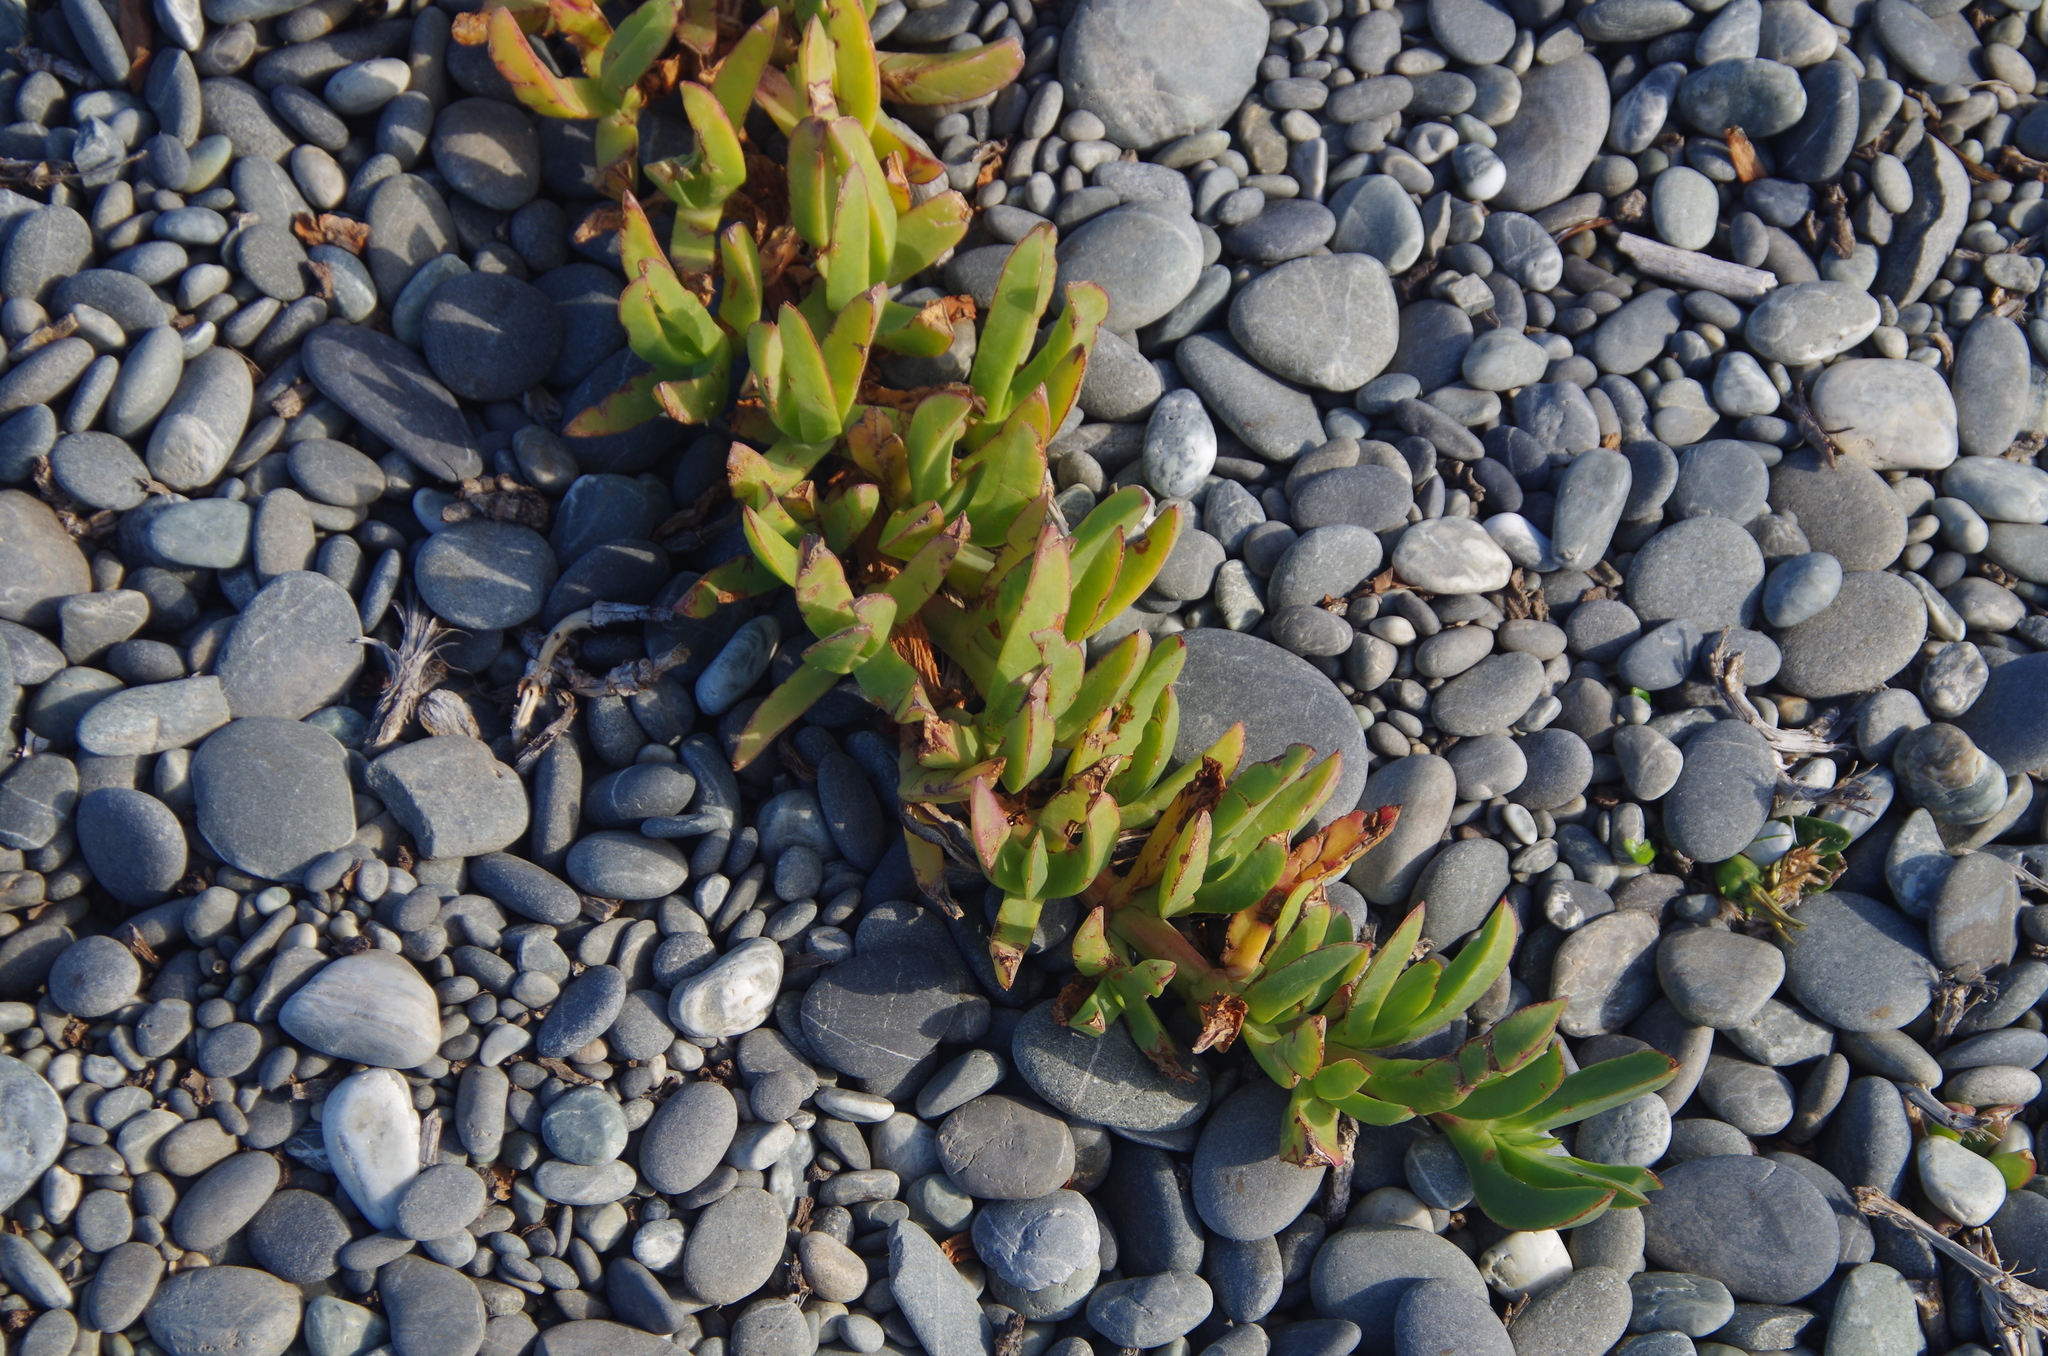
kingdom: Plantae
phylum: Tracheophyta
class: Magnoliopsida
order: Caryophyllales
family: Aizoaceae
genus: Carpobrotus
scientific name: Carpobrotus
